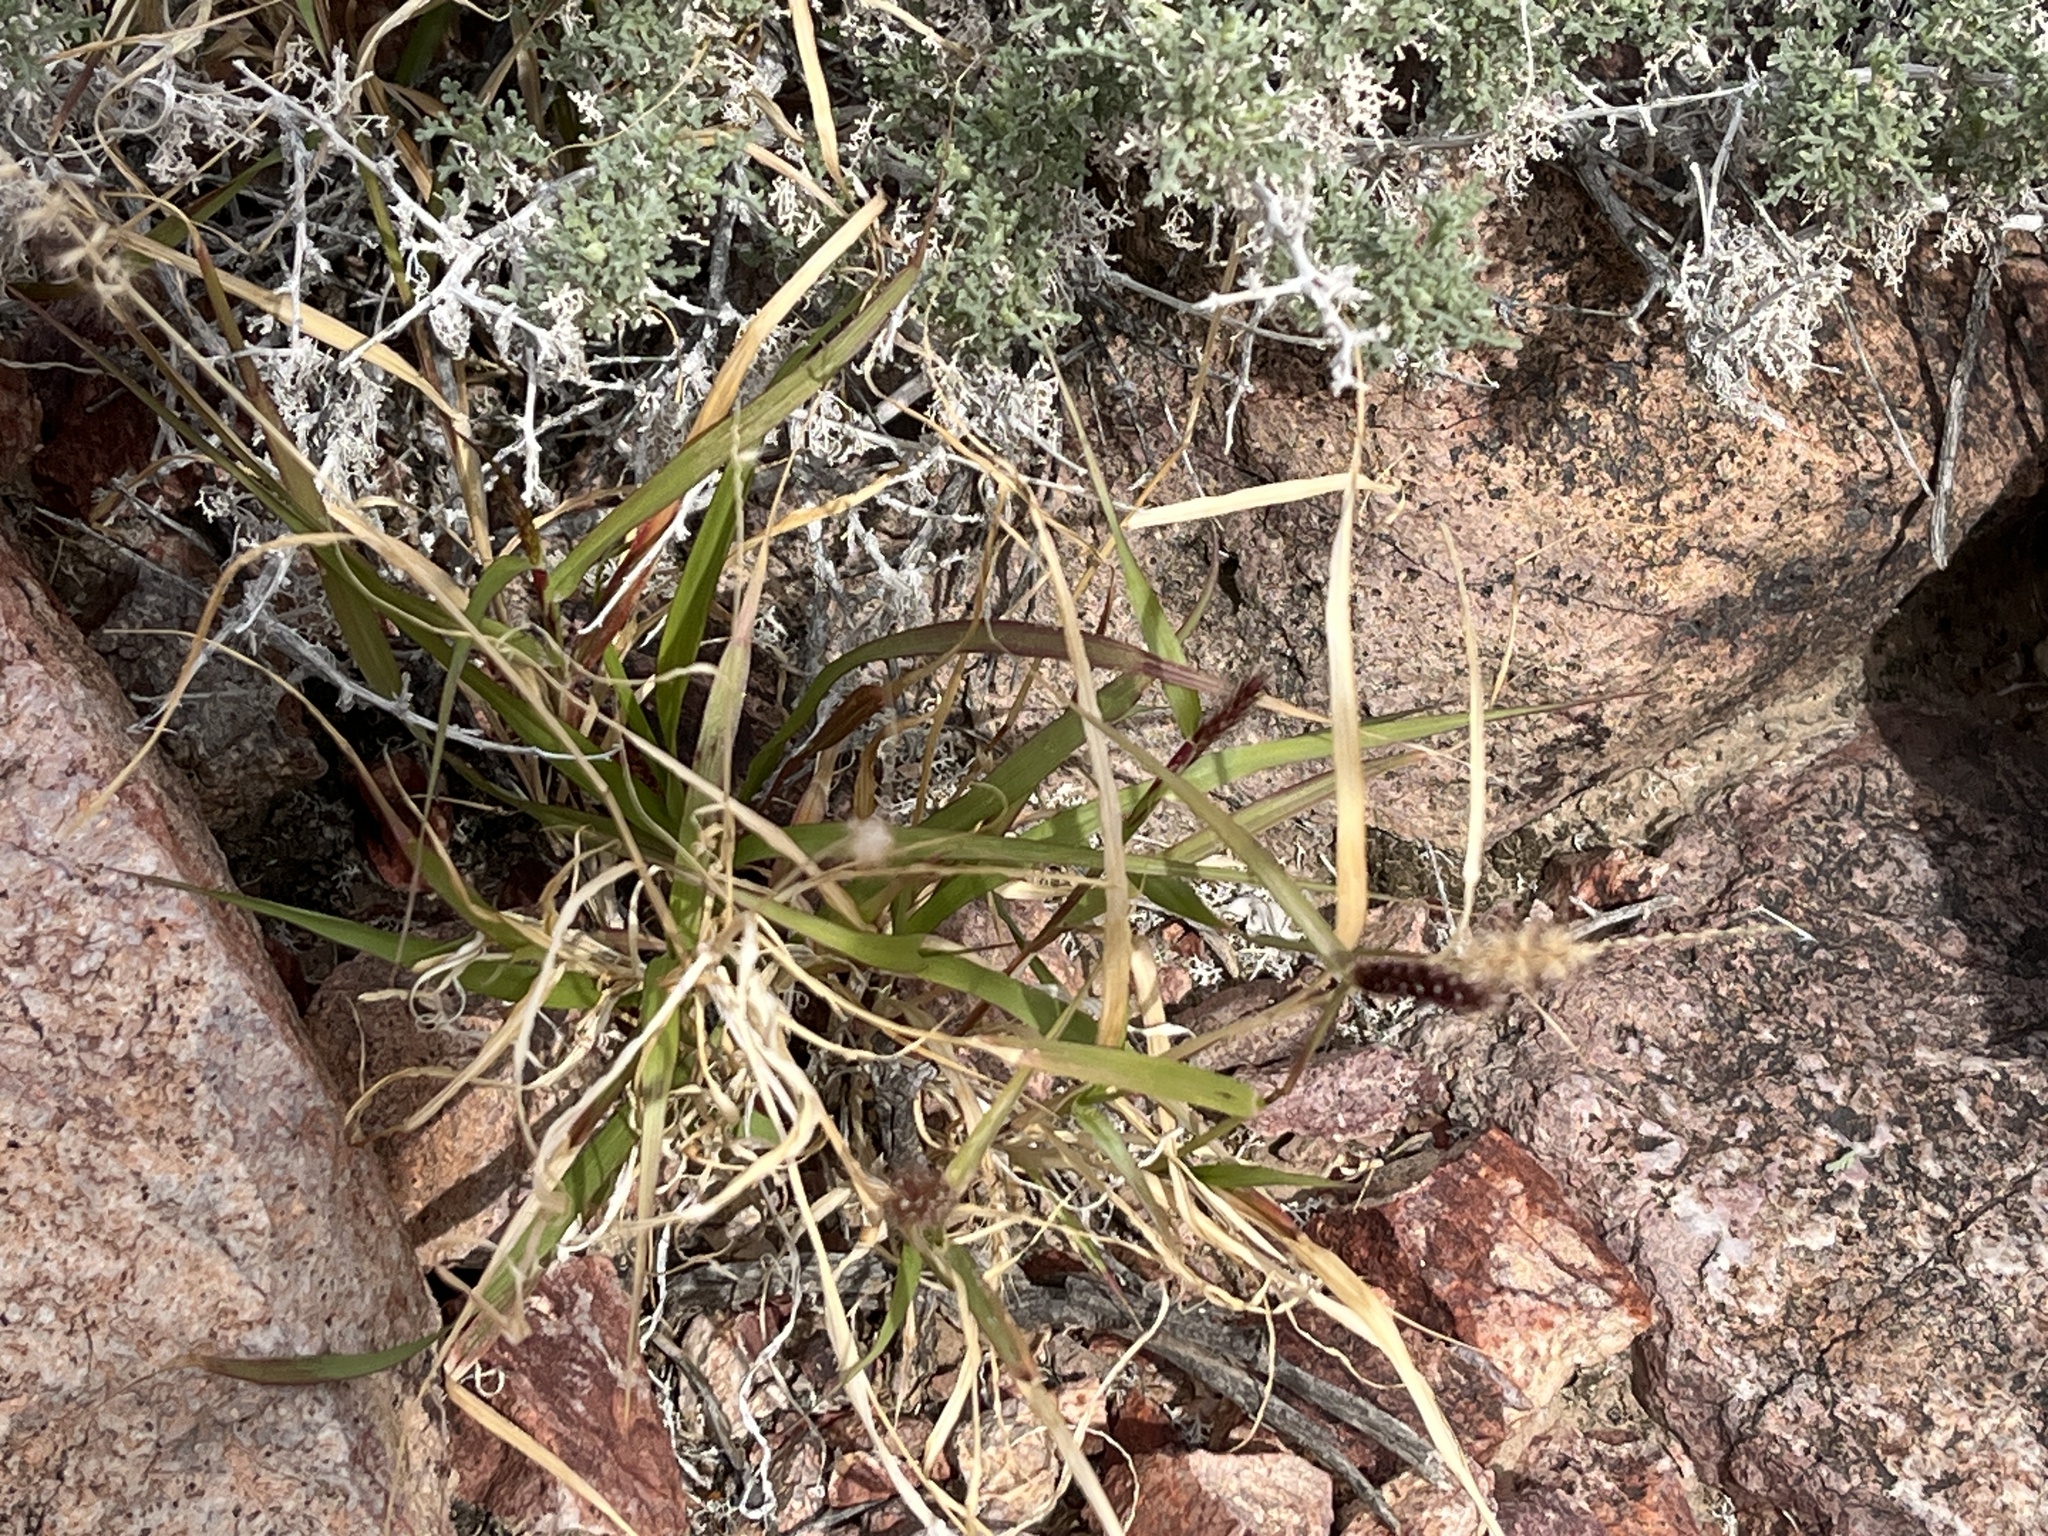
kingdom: Plantae
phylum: Tracheophyta
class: Liliopsida
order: Poales
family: Poaceae
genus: Cenchrus
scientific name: Cenchrus ciliaris
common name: Buffelgrass
